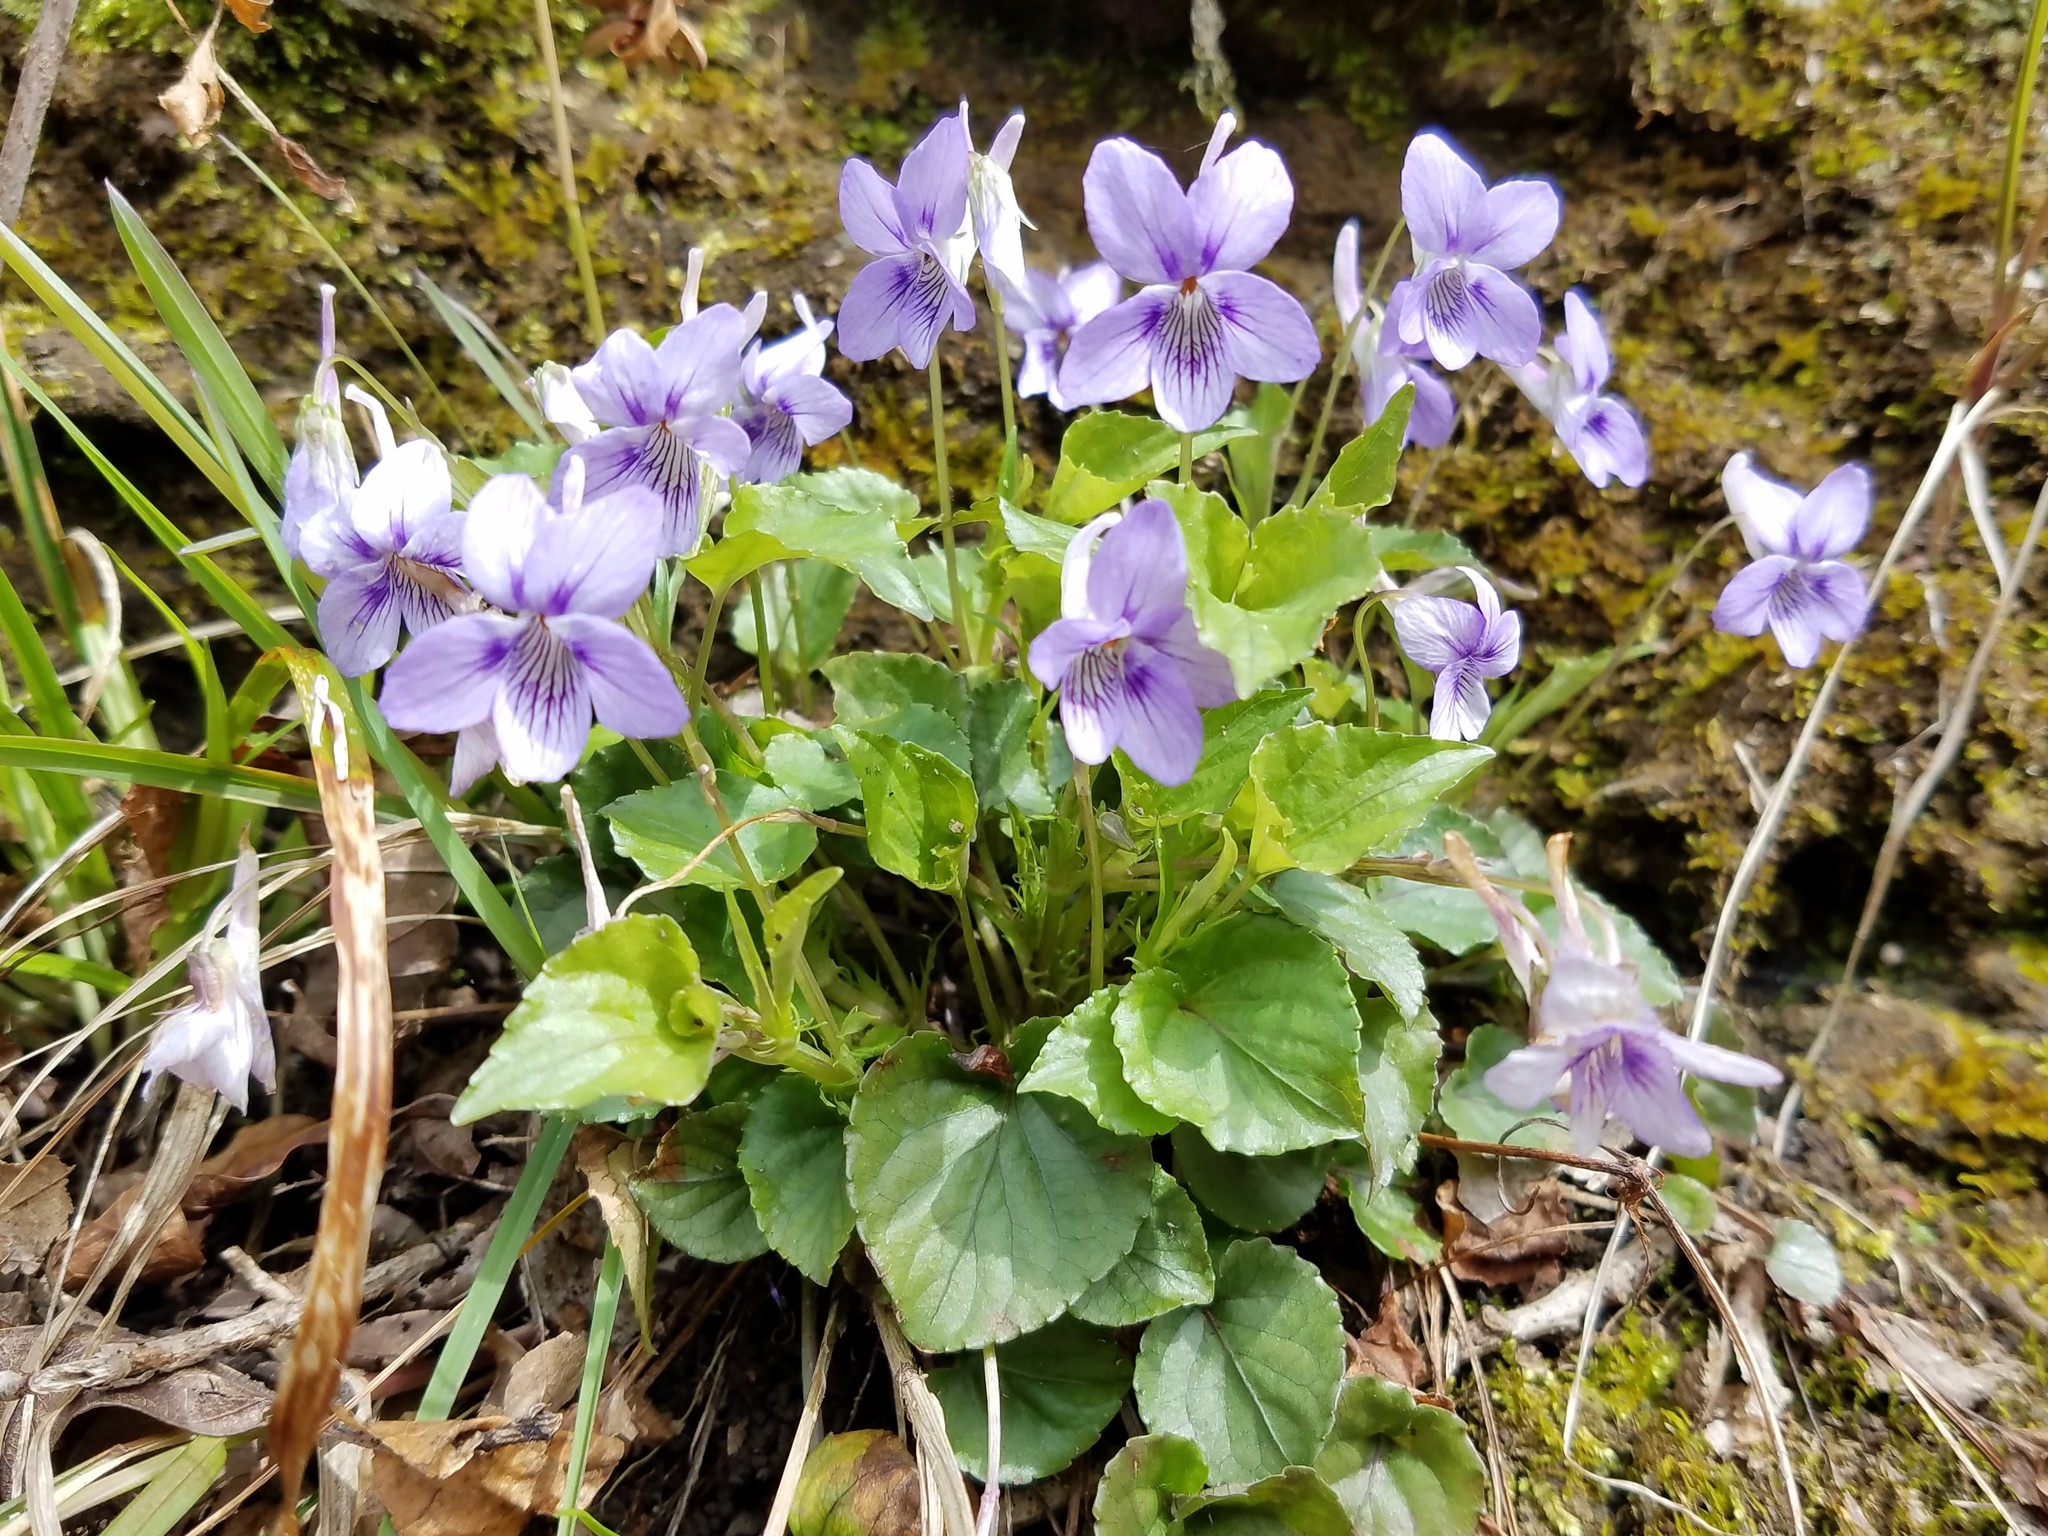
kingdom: Plantae
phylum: Tracheophyta
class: Magnoliopsida
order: Malpighiales
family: Violaceae
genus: Viola
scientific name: Viola rostrata
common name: Long-spur violet
